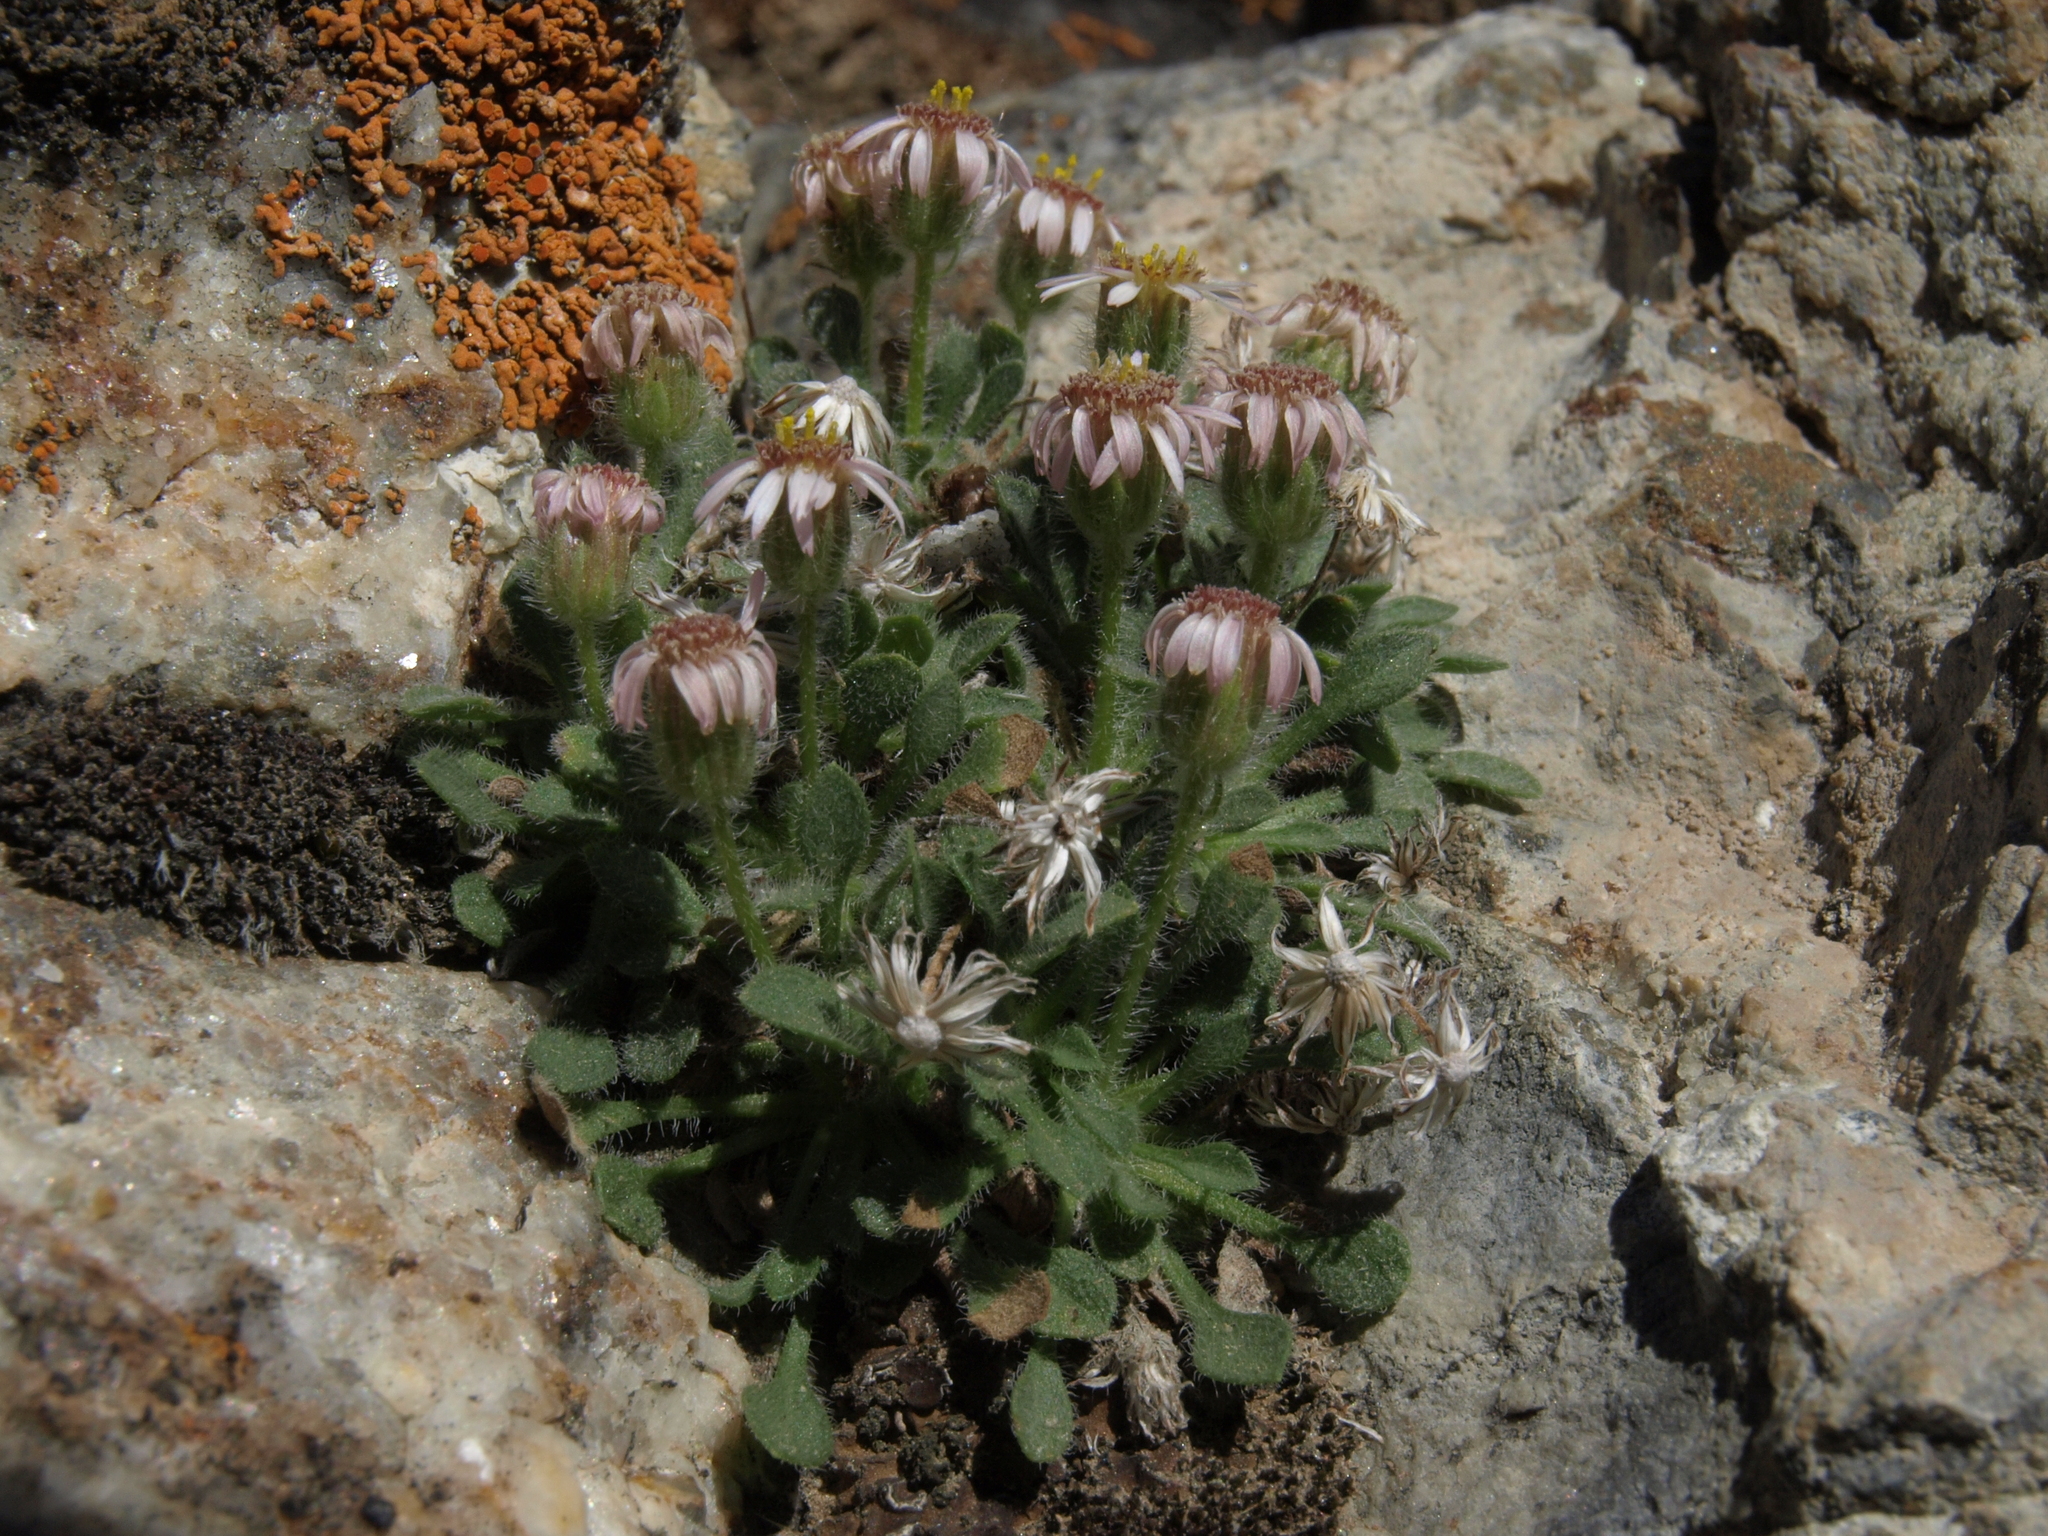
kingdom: Plantae
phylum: Tracheophyta
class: Magnoliopsida
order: Asterales
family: Asteraceae
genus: Erigeron
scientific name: Erigeron uncialis
